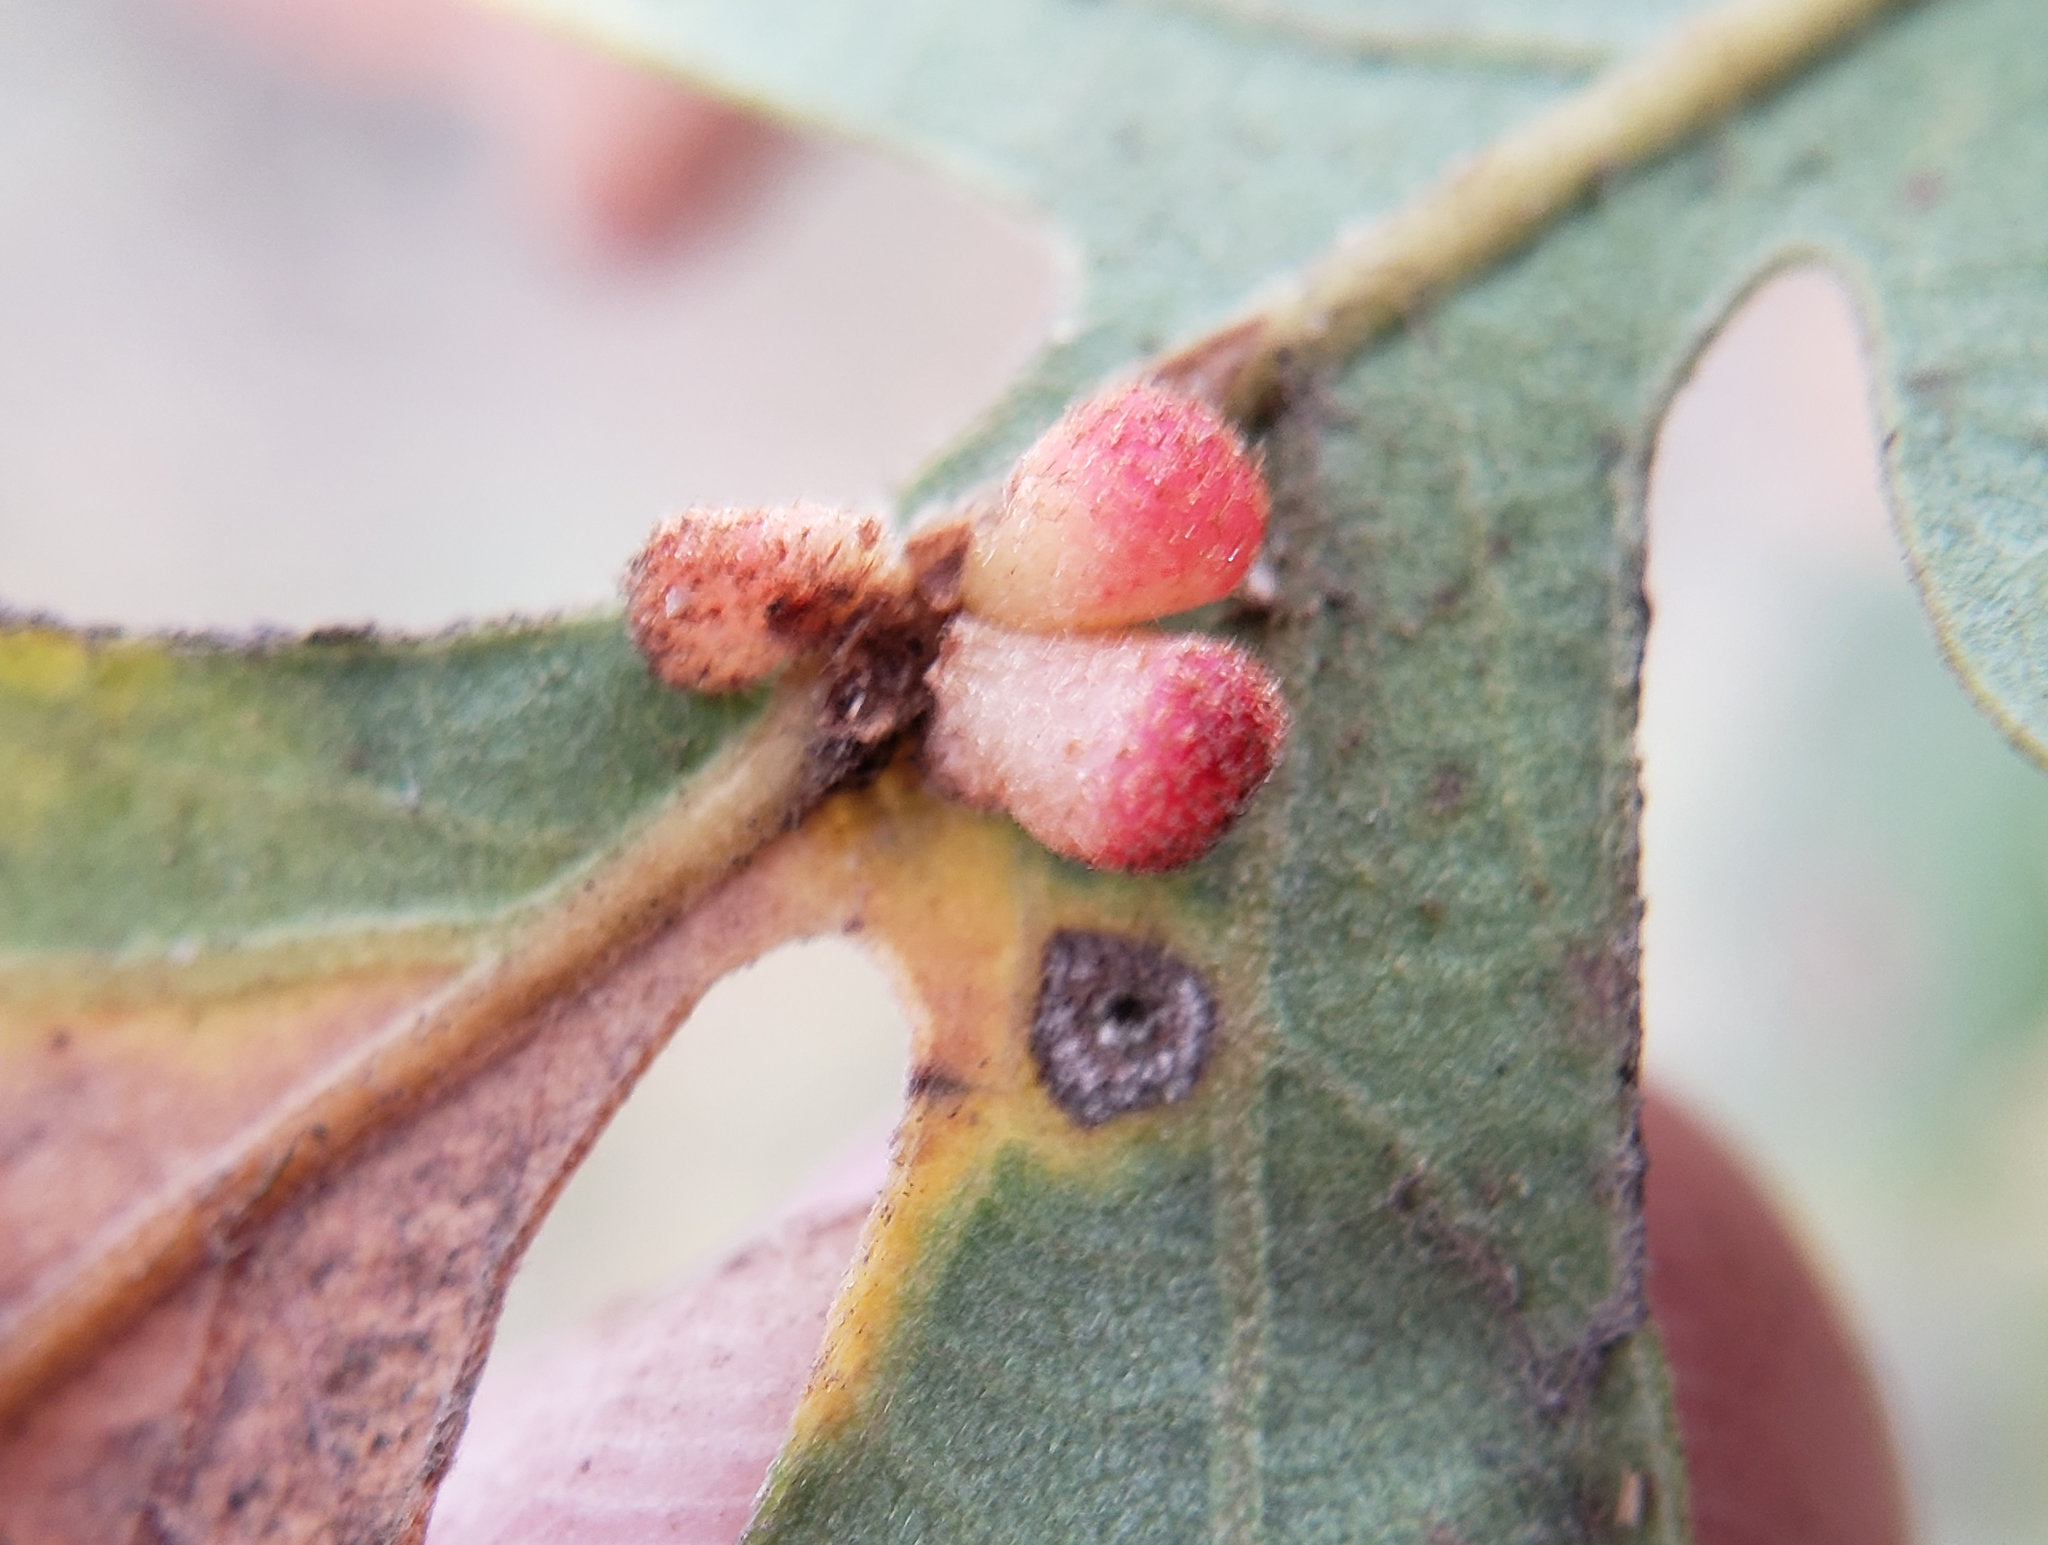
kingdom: Animalia
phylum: Arthropoda
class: Insecta
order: Hymenoptera
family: Cynipidae
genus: Andricus
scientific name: Andricus
